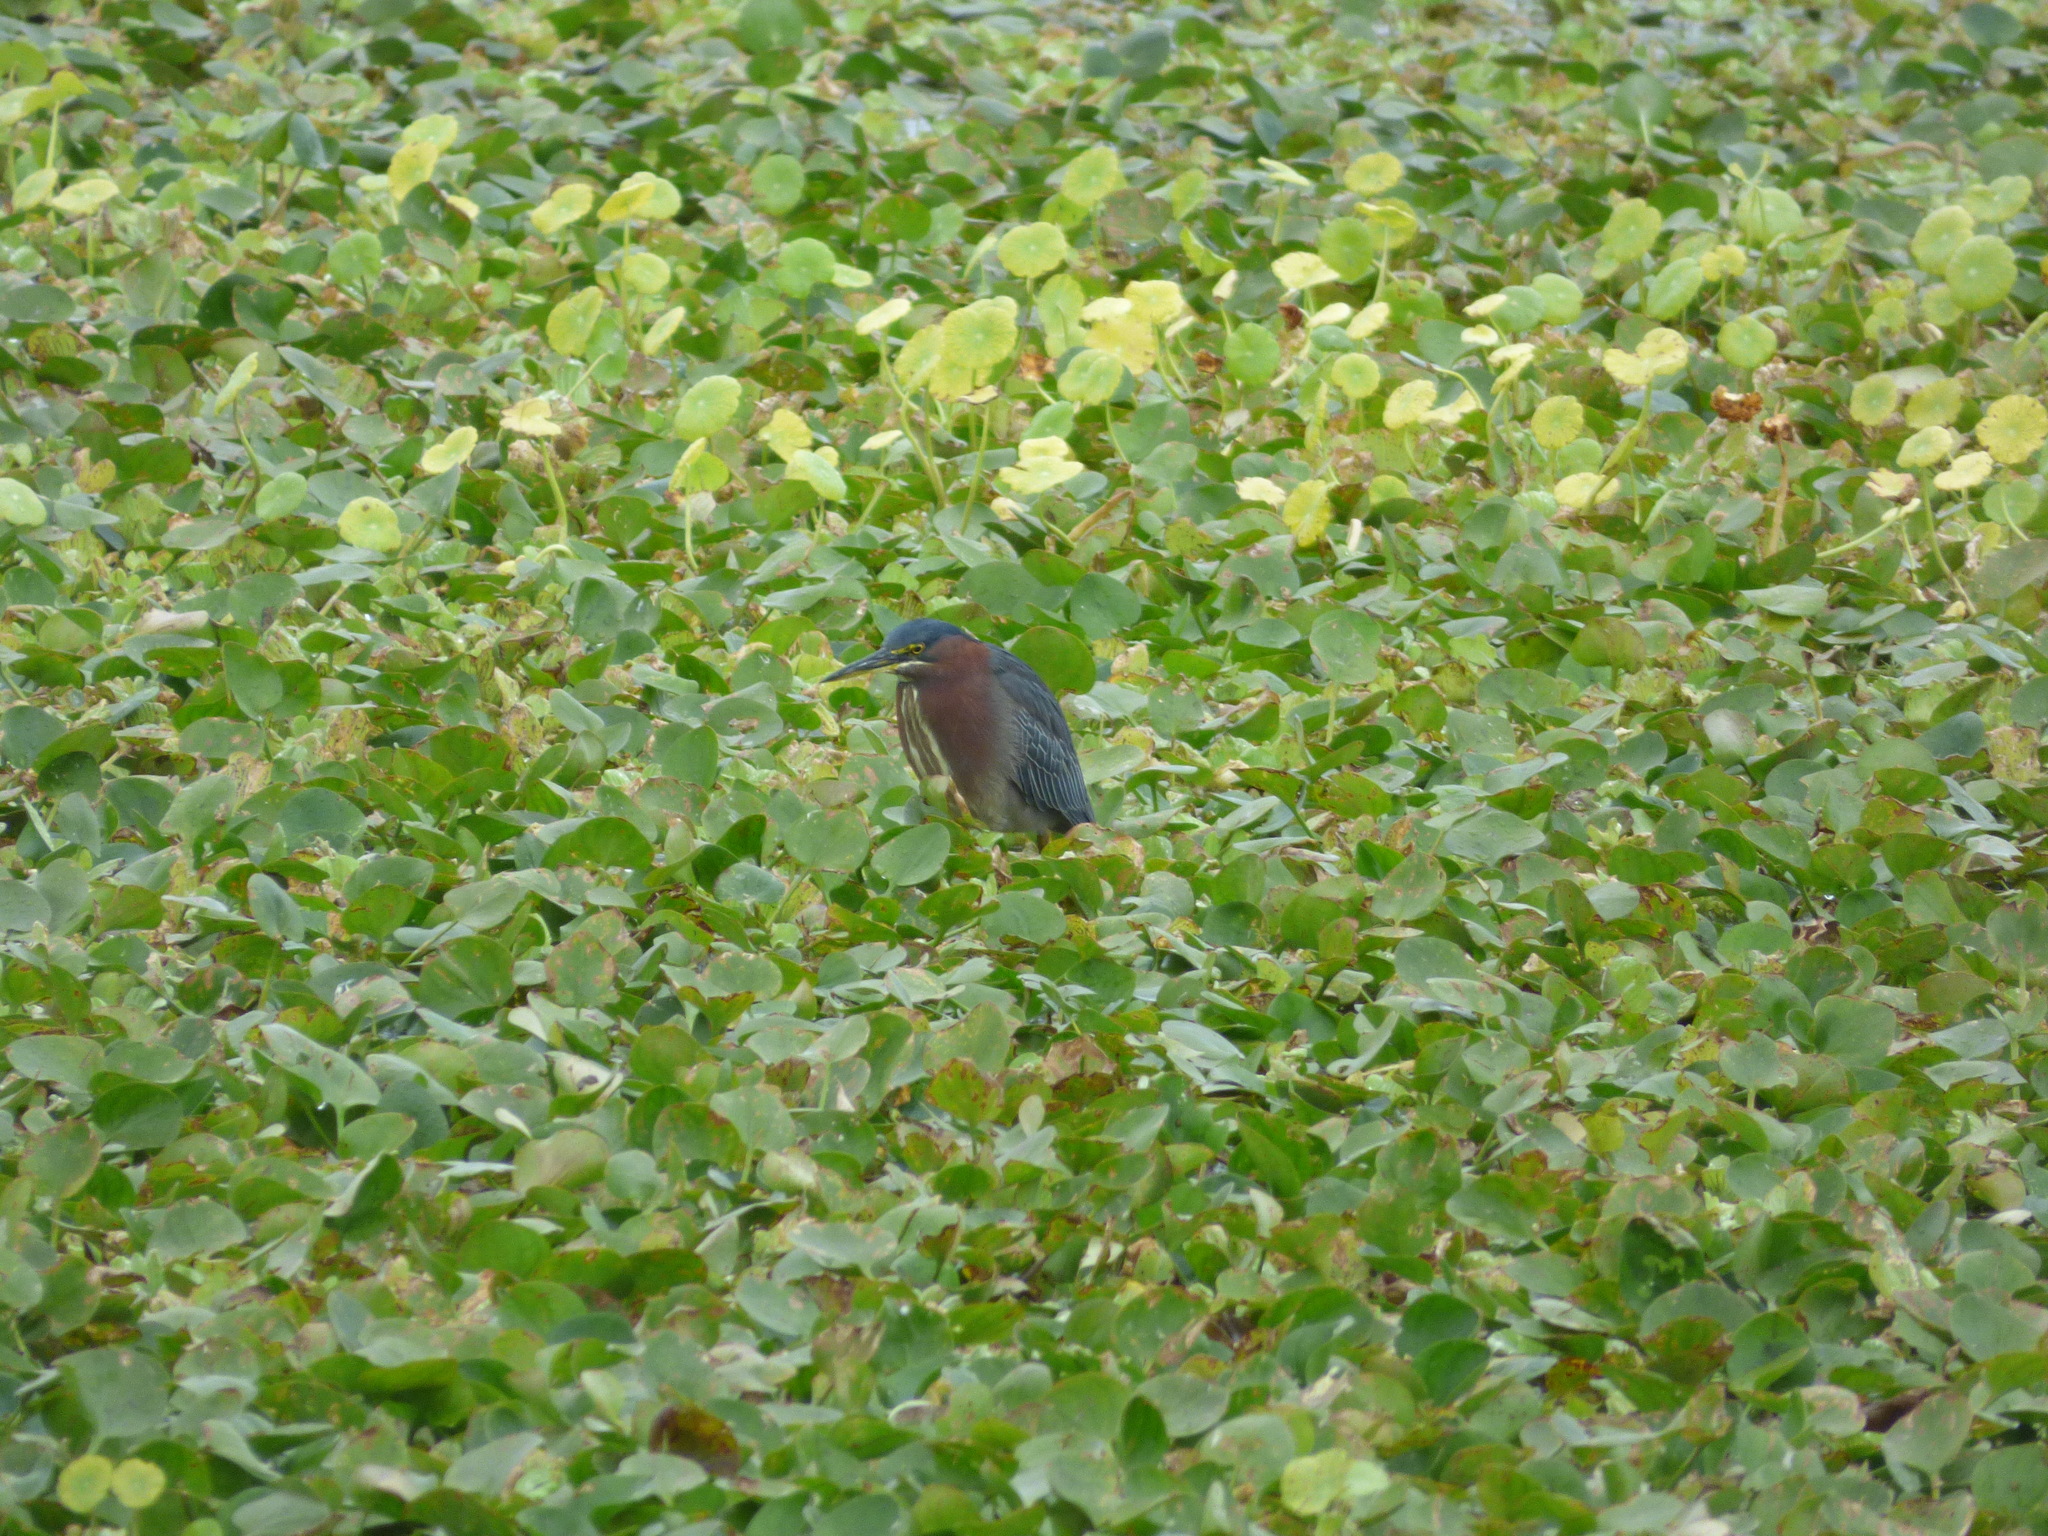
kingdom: Animalia
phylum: Chordata
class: Aves
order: Pelecaniformes
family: Ardeidae
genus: Butorides
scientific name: Butorides virescens
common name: Green heron
